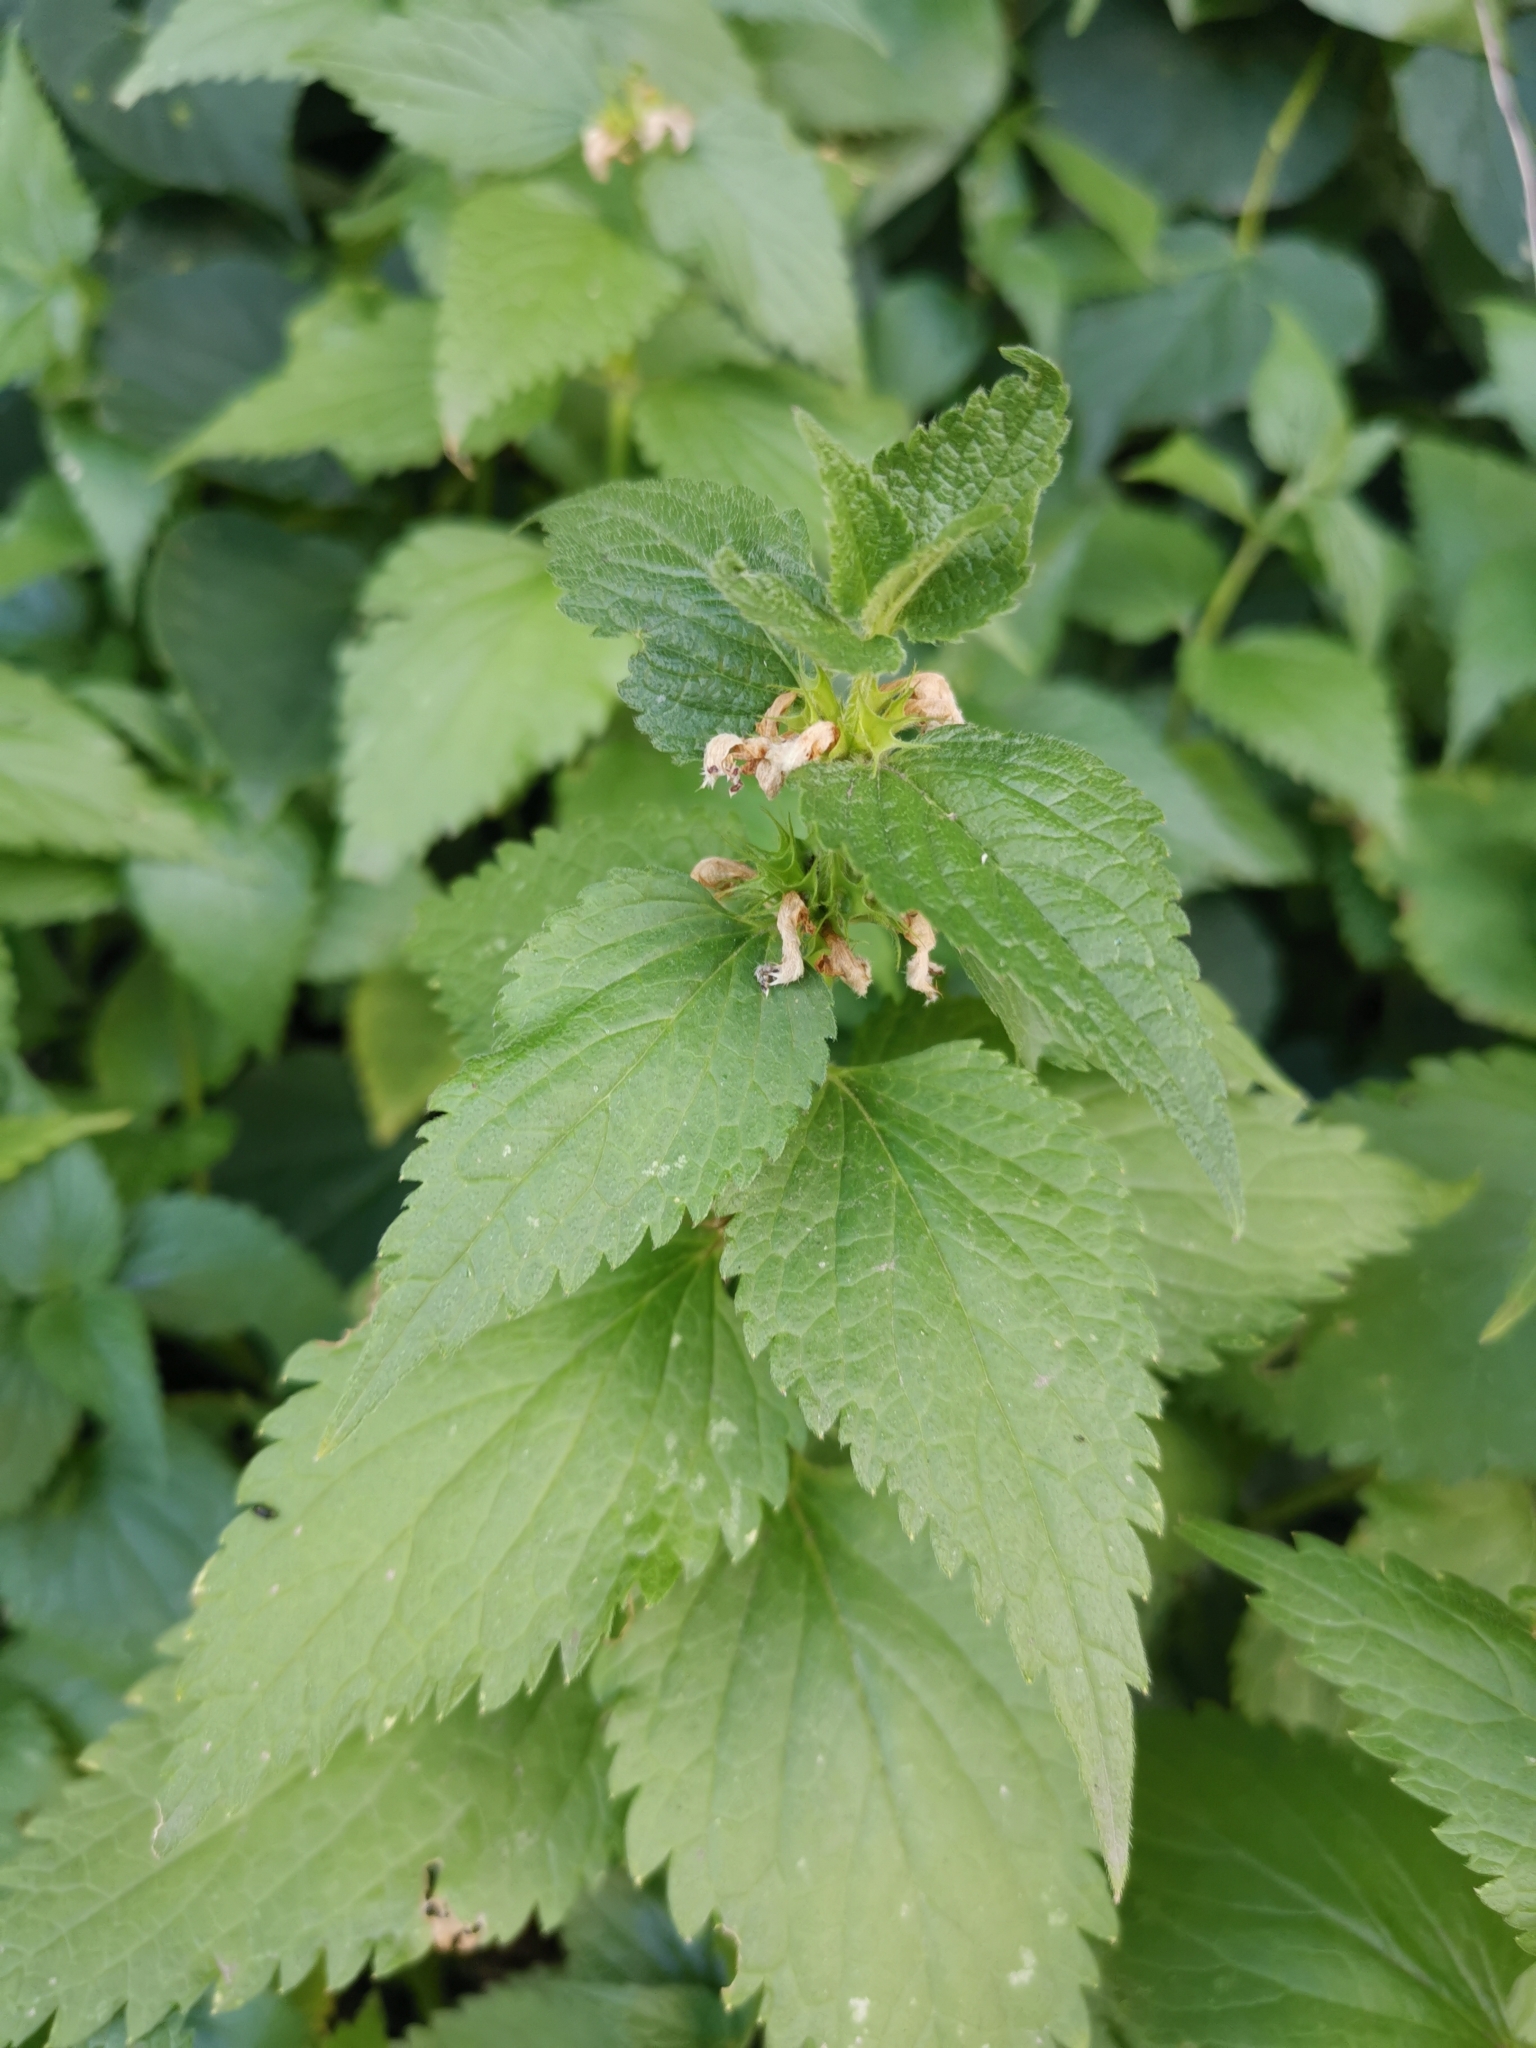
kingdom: Plantae
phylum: Tracheophyta
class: Magnoliopsida
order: Lamiales
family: Lamiaceae
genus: Lamium
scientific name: Lamium album
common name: White dead-nettle
